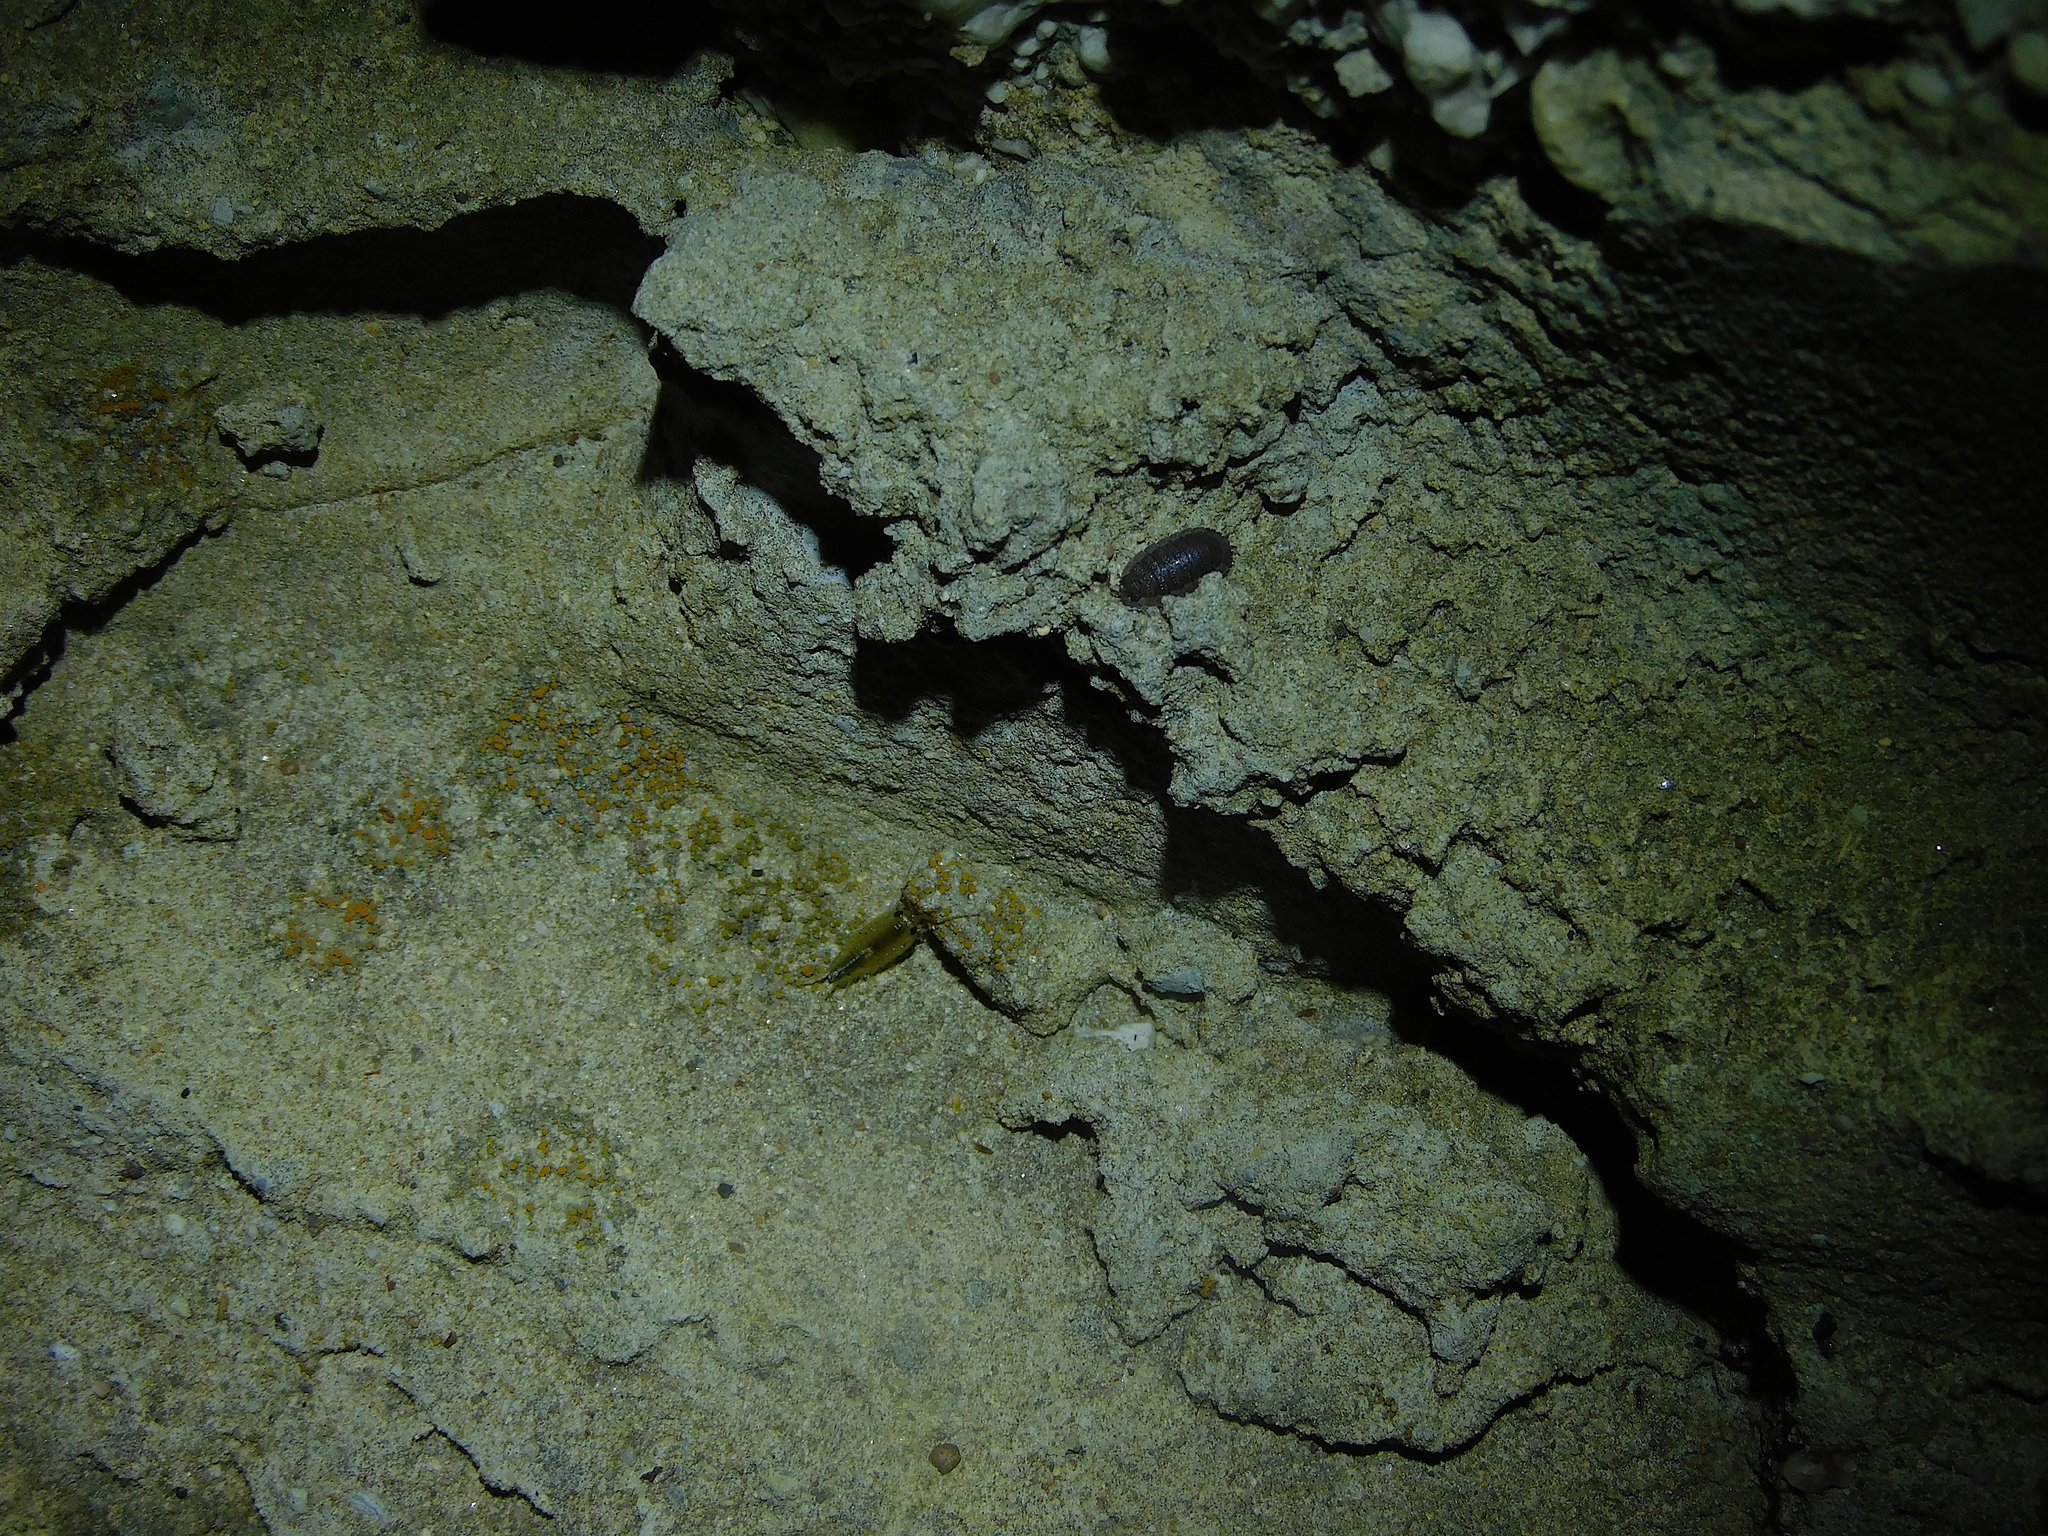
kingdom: Animalia
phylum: Arthropoda
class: Malacostraca
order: Isopoda
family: Porcellionidae
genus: Porcellio
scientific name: Porcellio scaber
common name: Common rough woodlouse
